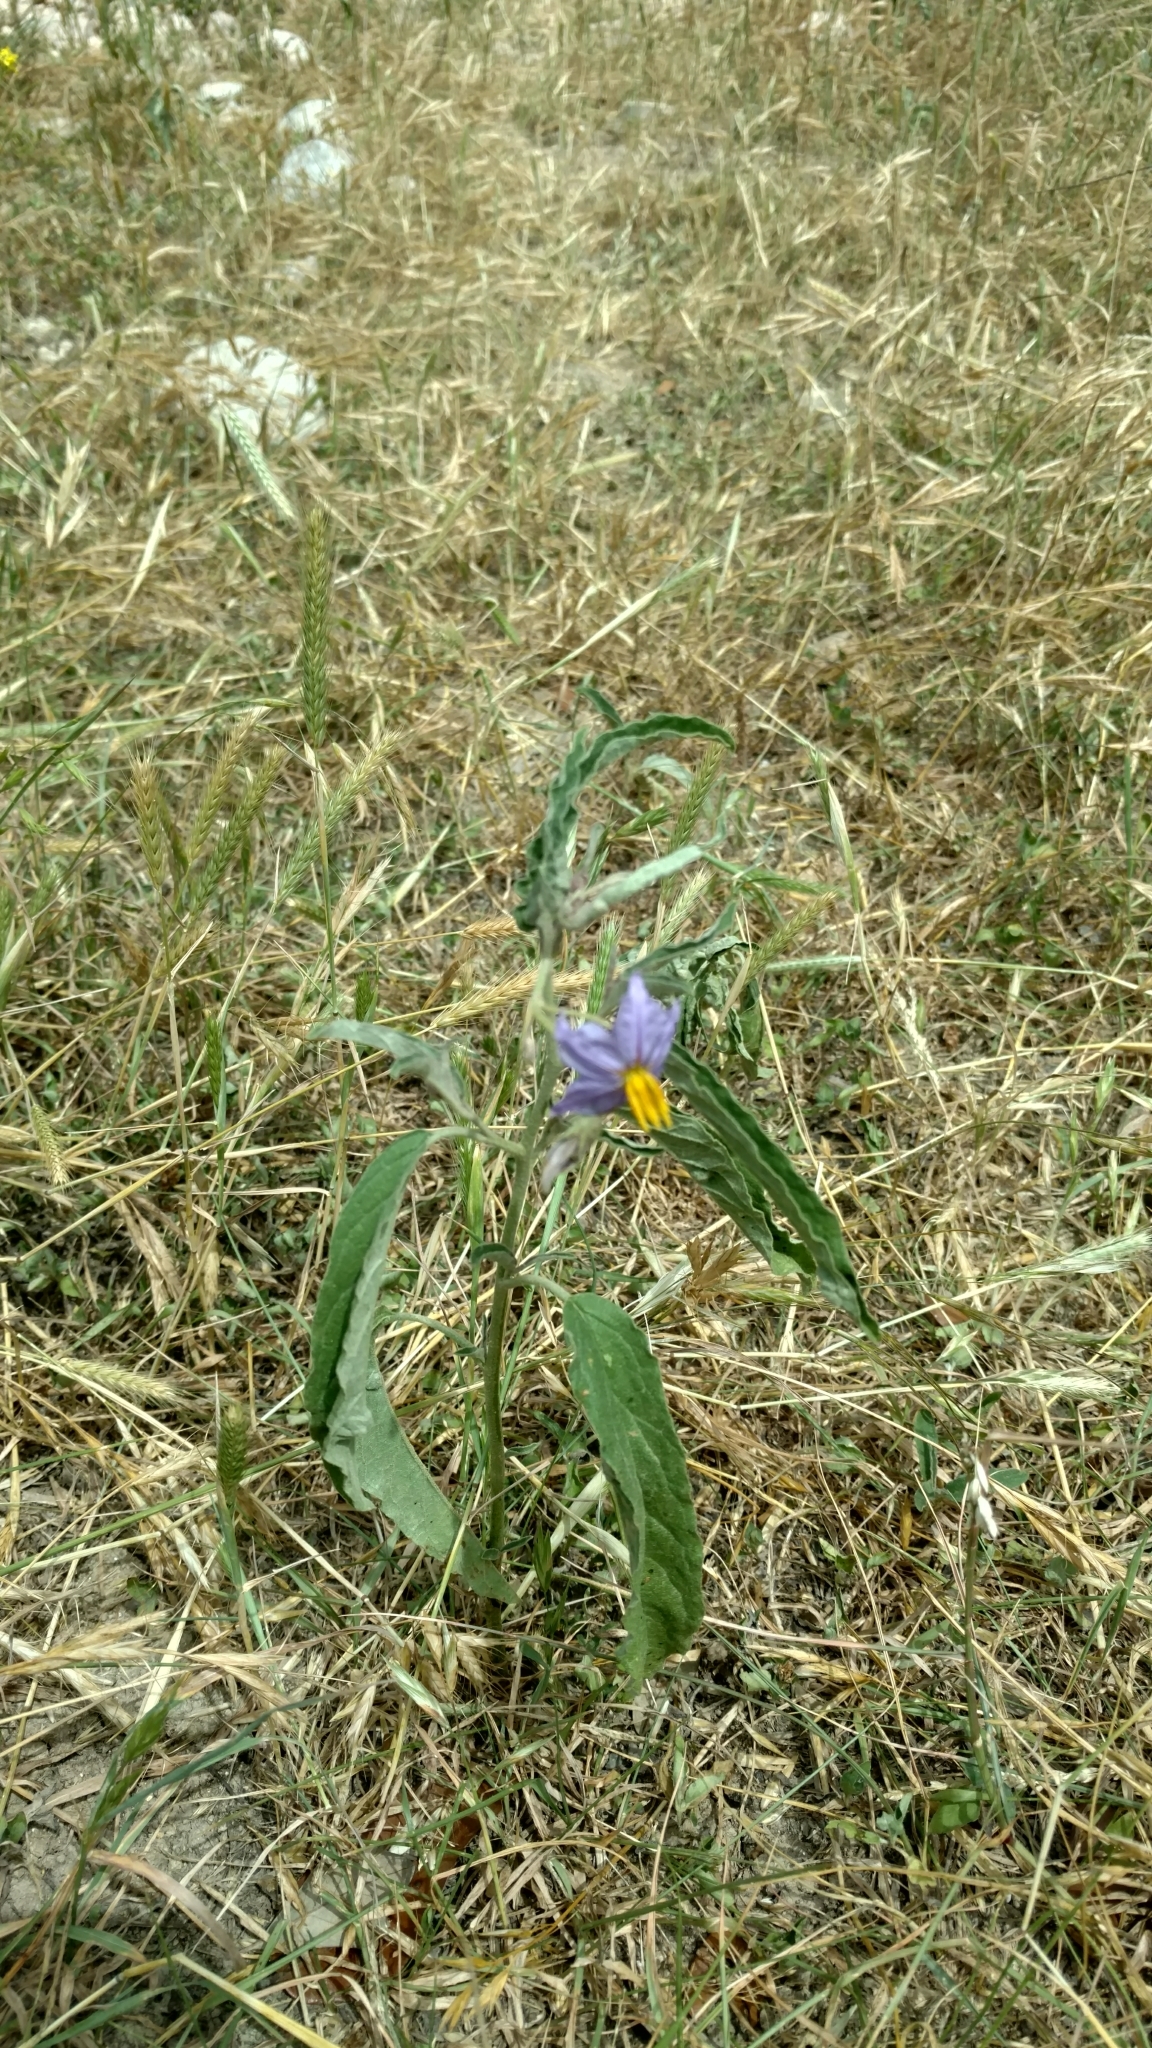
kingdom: Plantae
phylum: Tracheophyta
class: Magnoliopsida
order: Solanales
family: Solanaceae
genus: Solanum
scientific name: Solanum elaeagnifolium
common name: Silverleaf nightshade
